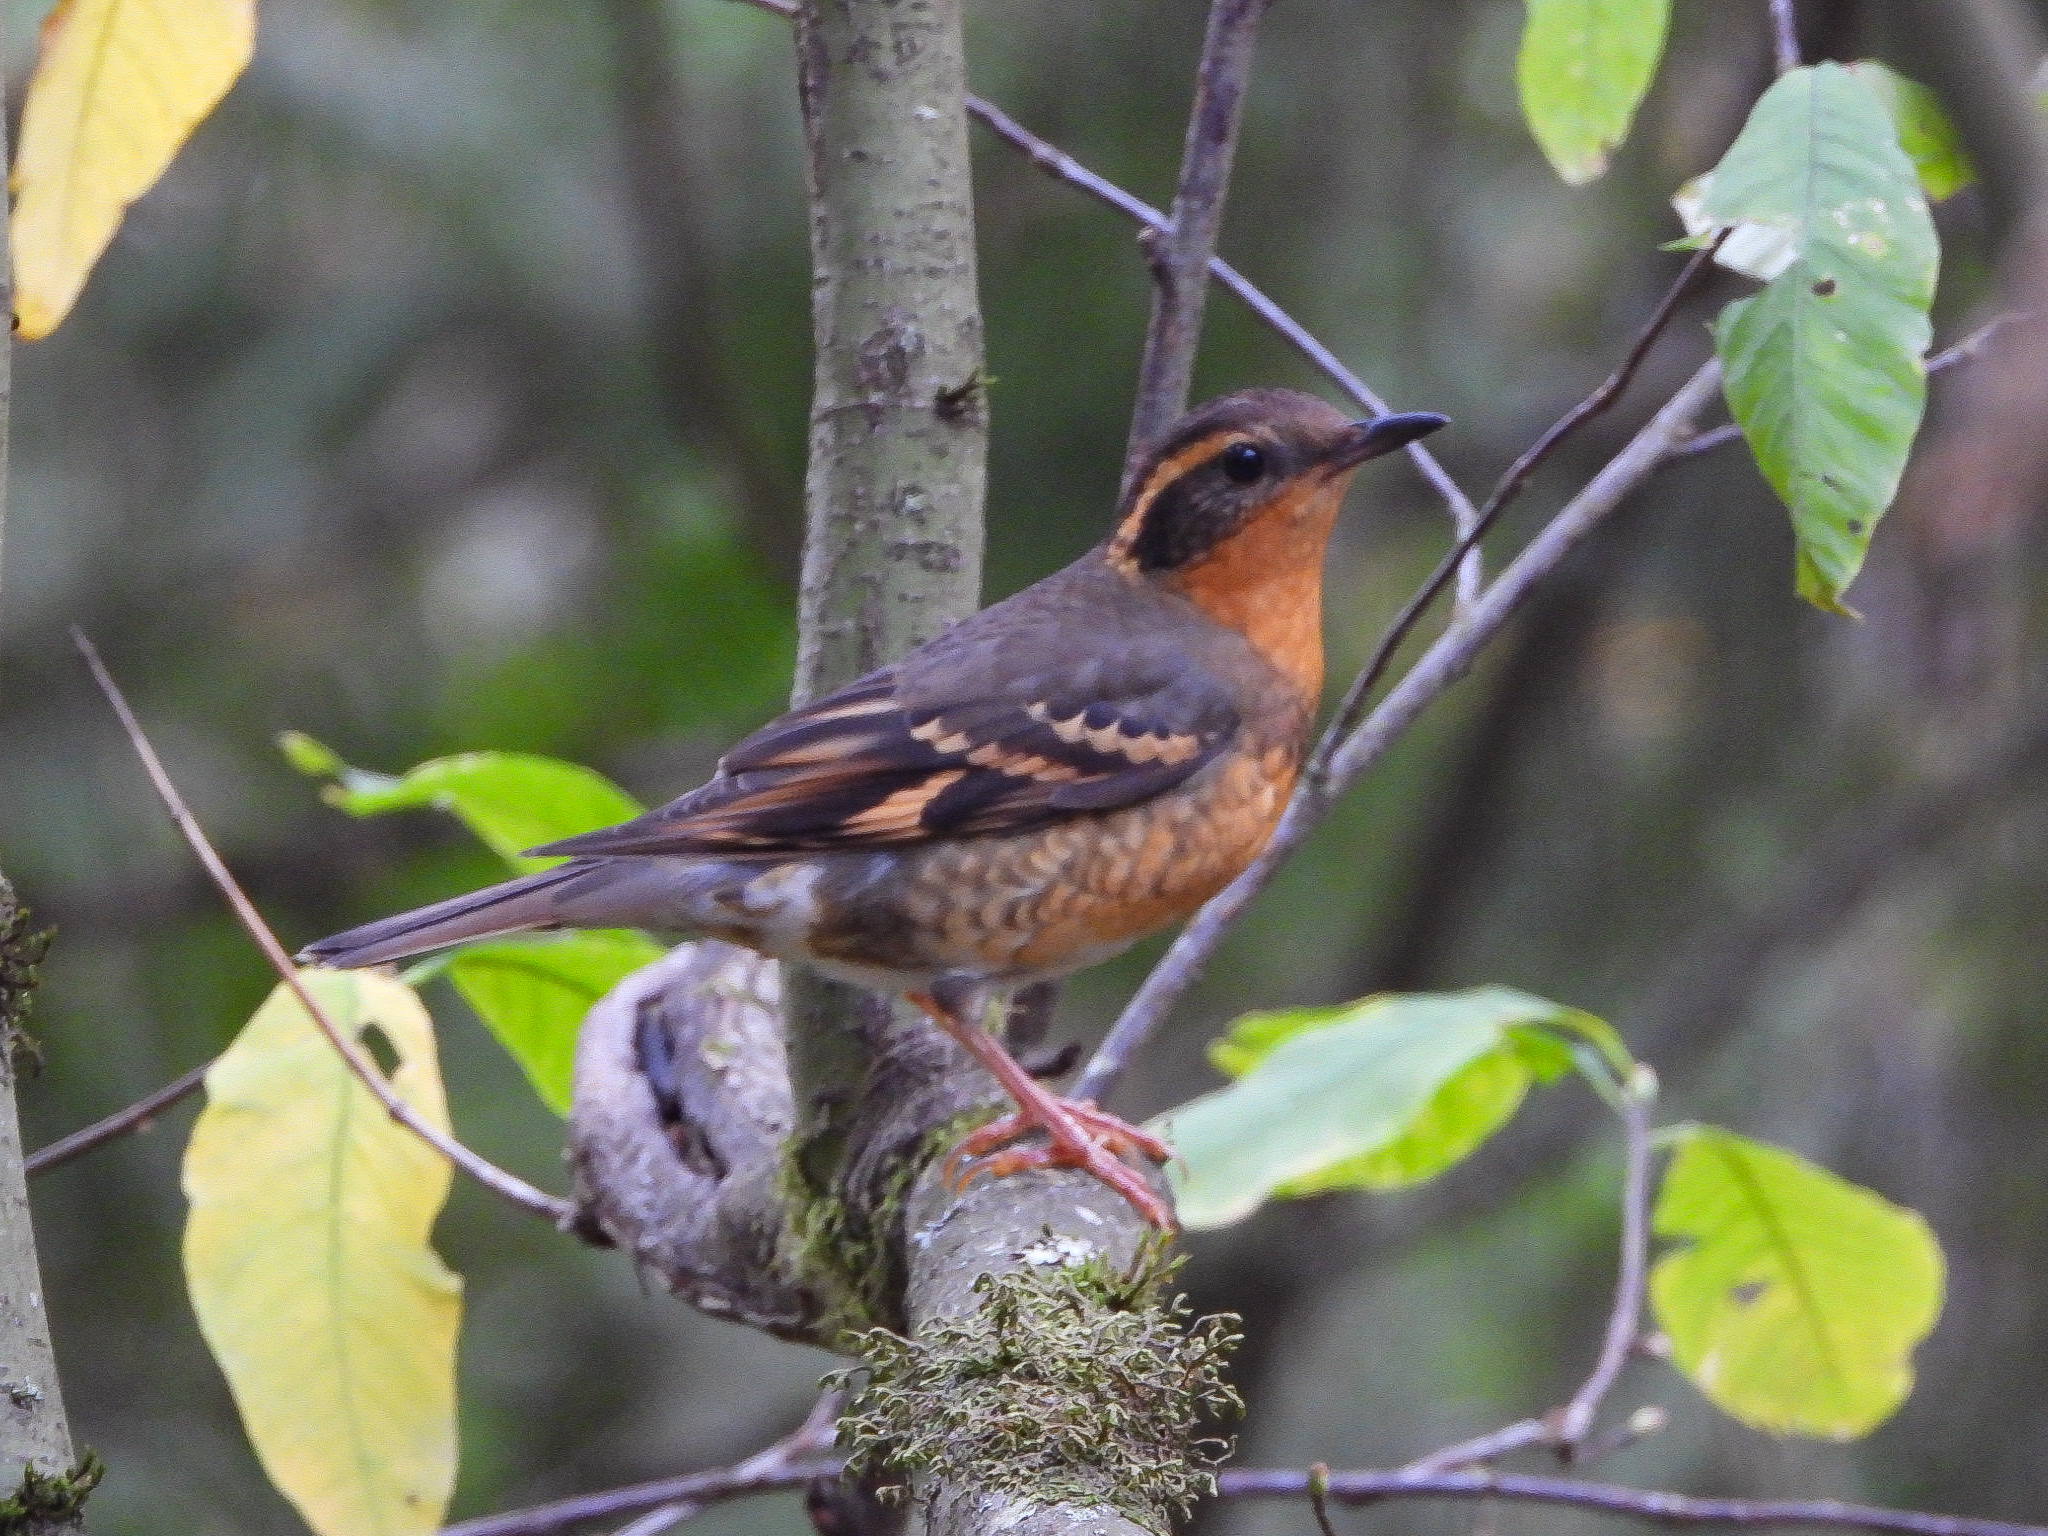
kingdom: Animalia
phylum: Chordata
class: Aves
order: Passeriformes
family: Turdidae
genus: Ixoreus
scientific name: Ixoreus naevius
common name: Varied thrush
